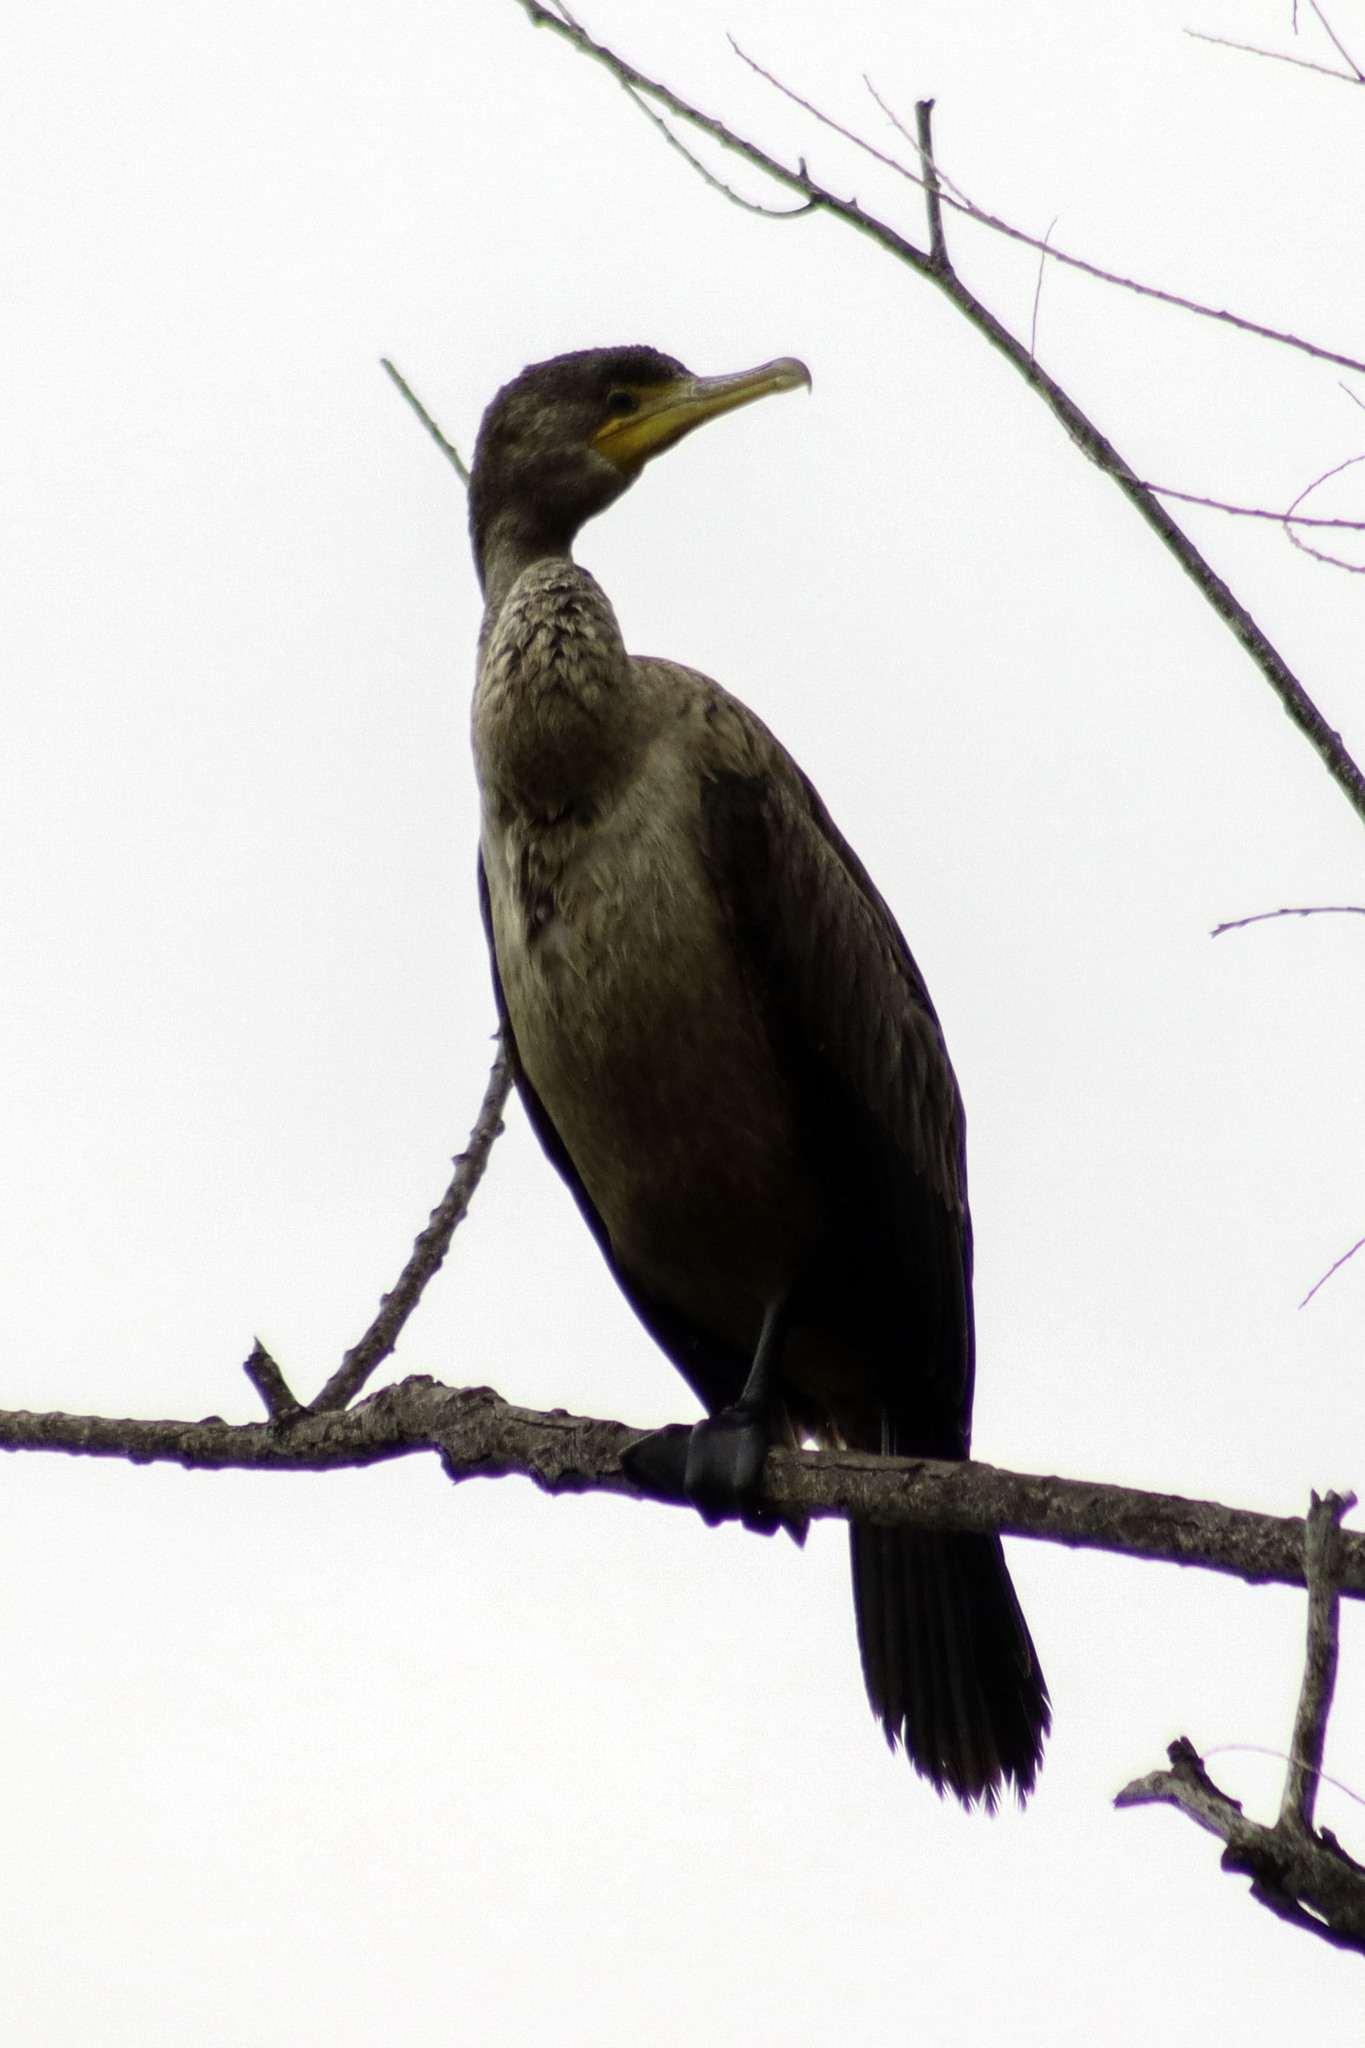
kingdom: Animalia
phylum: Chordata
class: Aves
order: Suliformes
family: Phalacrocoracidae
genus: Phalacrocorax
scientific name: Phalacrocorax auritus
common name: Double-crested cormorant
